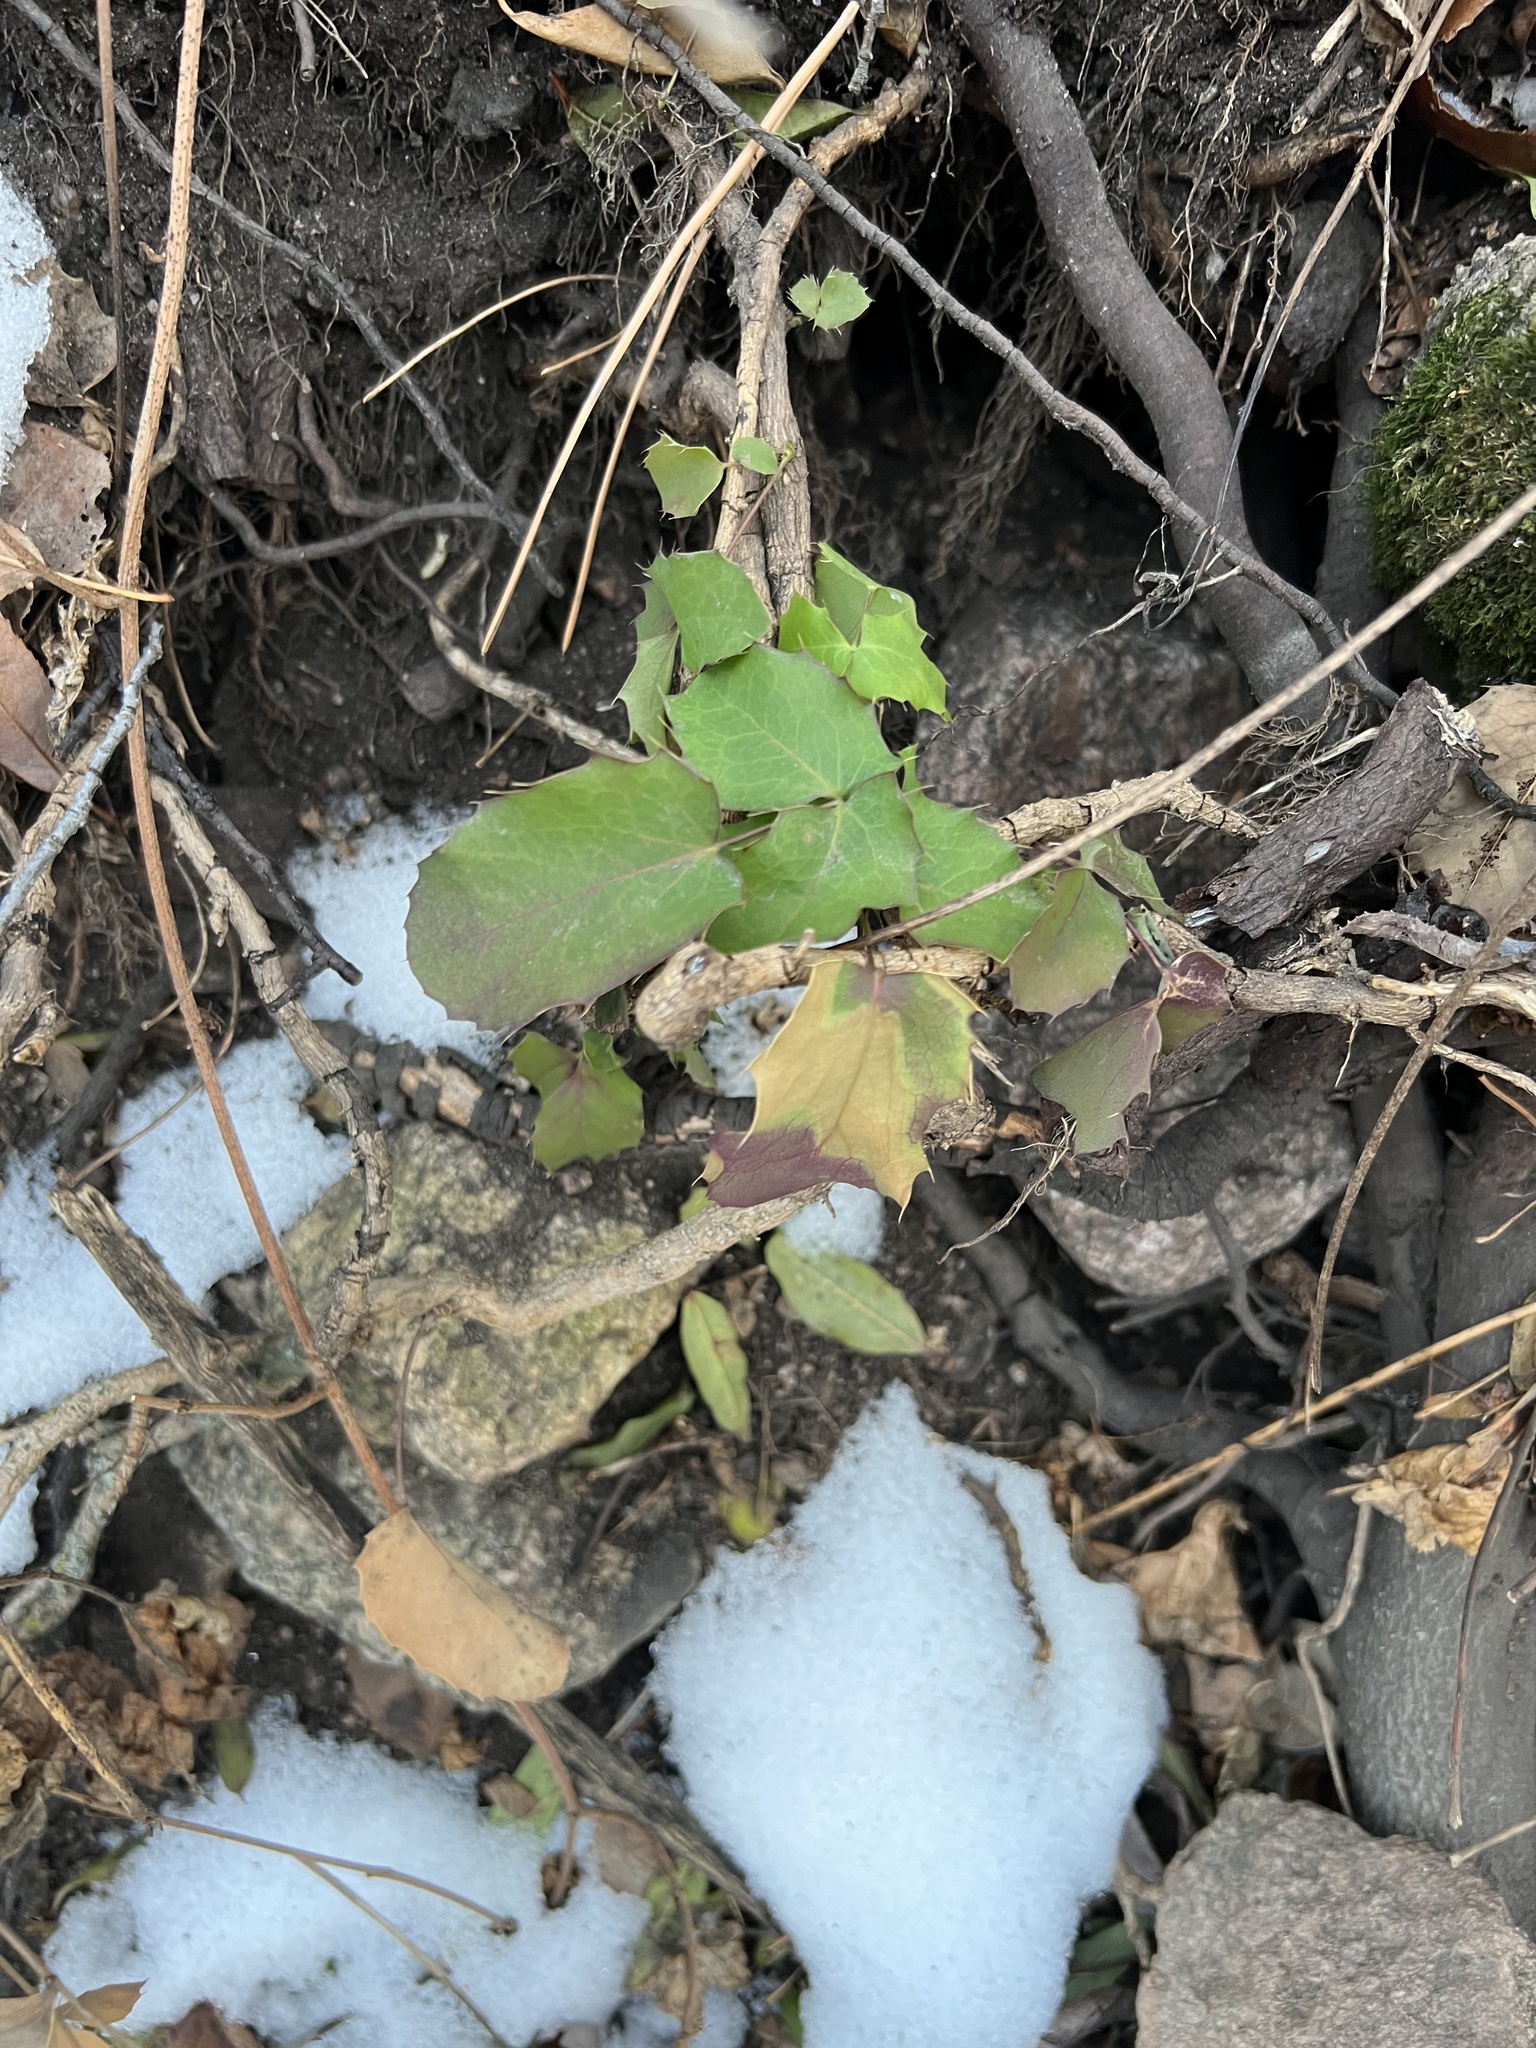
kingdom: Plantae
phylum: Tracheophyta
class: Magnoliopsida
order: Ranunculales
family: Berberidaceae
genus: Mahonia
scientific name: Mahonia repens
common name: Creeping oregon-grape
